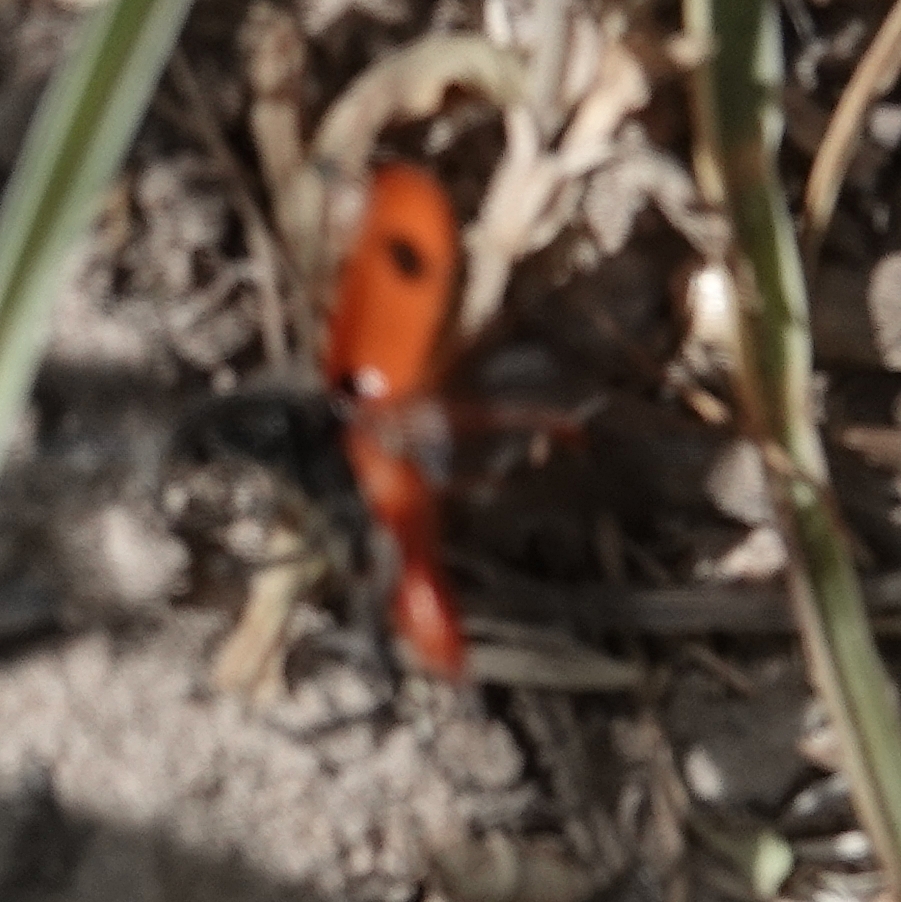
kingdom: Animalia
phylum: Arthropoda
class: Insecta
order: Coleoptera
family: Cleridae
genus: Enoclerus
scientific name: Enoclerus
